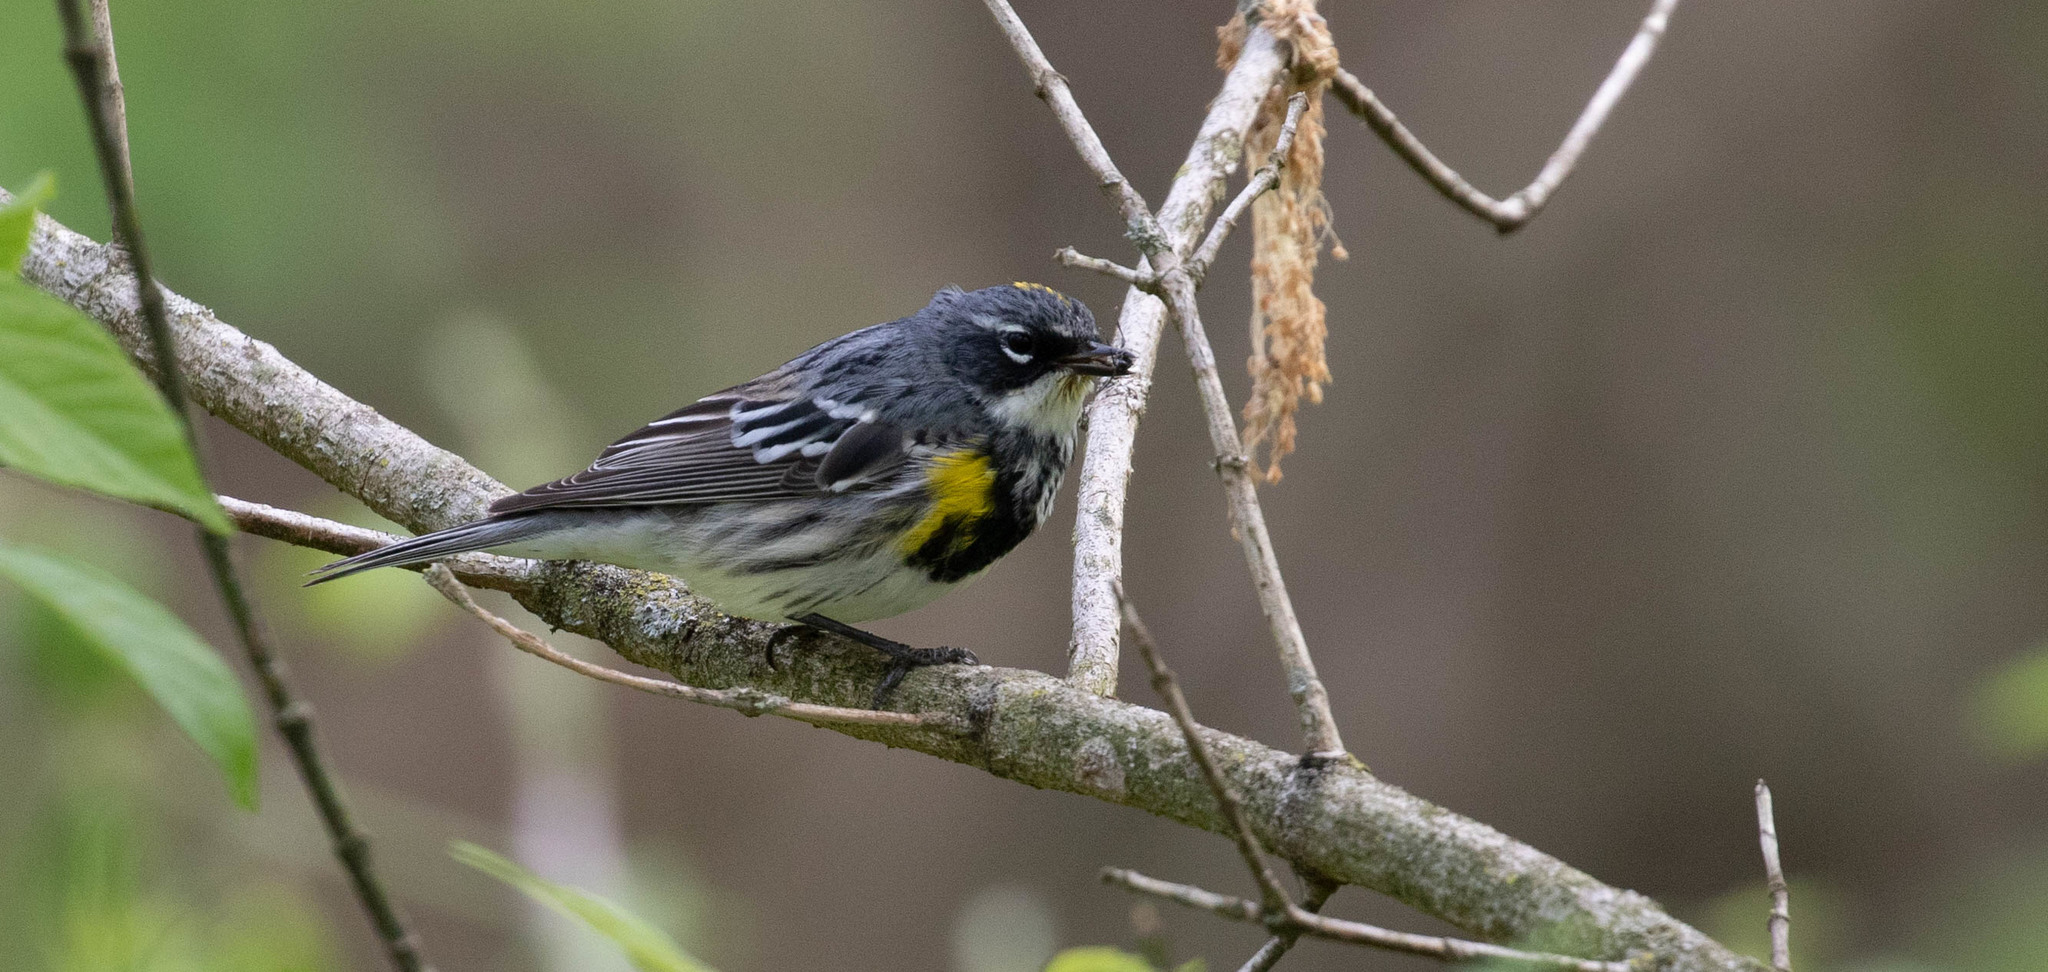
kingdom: Animalia
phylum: Chordata
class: Aves
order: Passeriformes
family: Parulidae
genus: Setophaga
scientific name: Setophaga coronata
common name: Myrtle warbler
